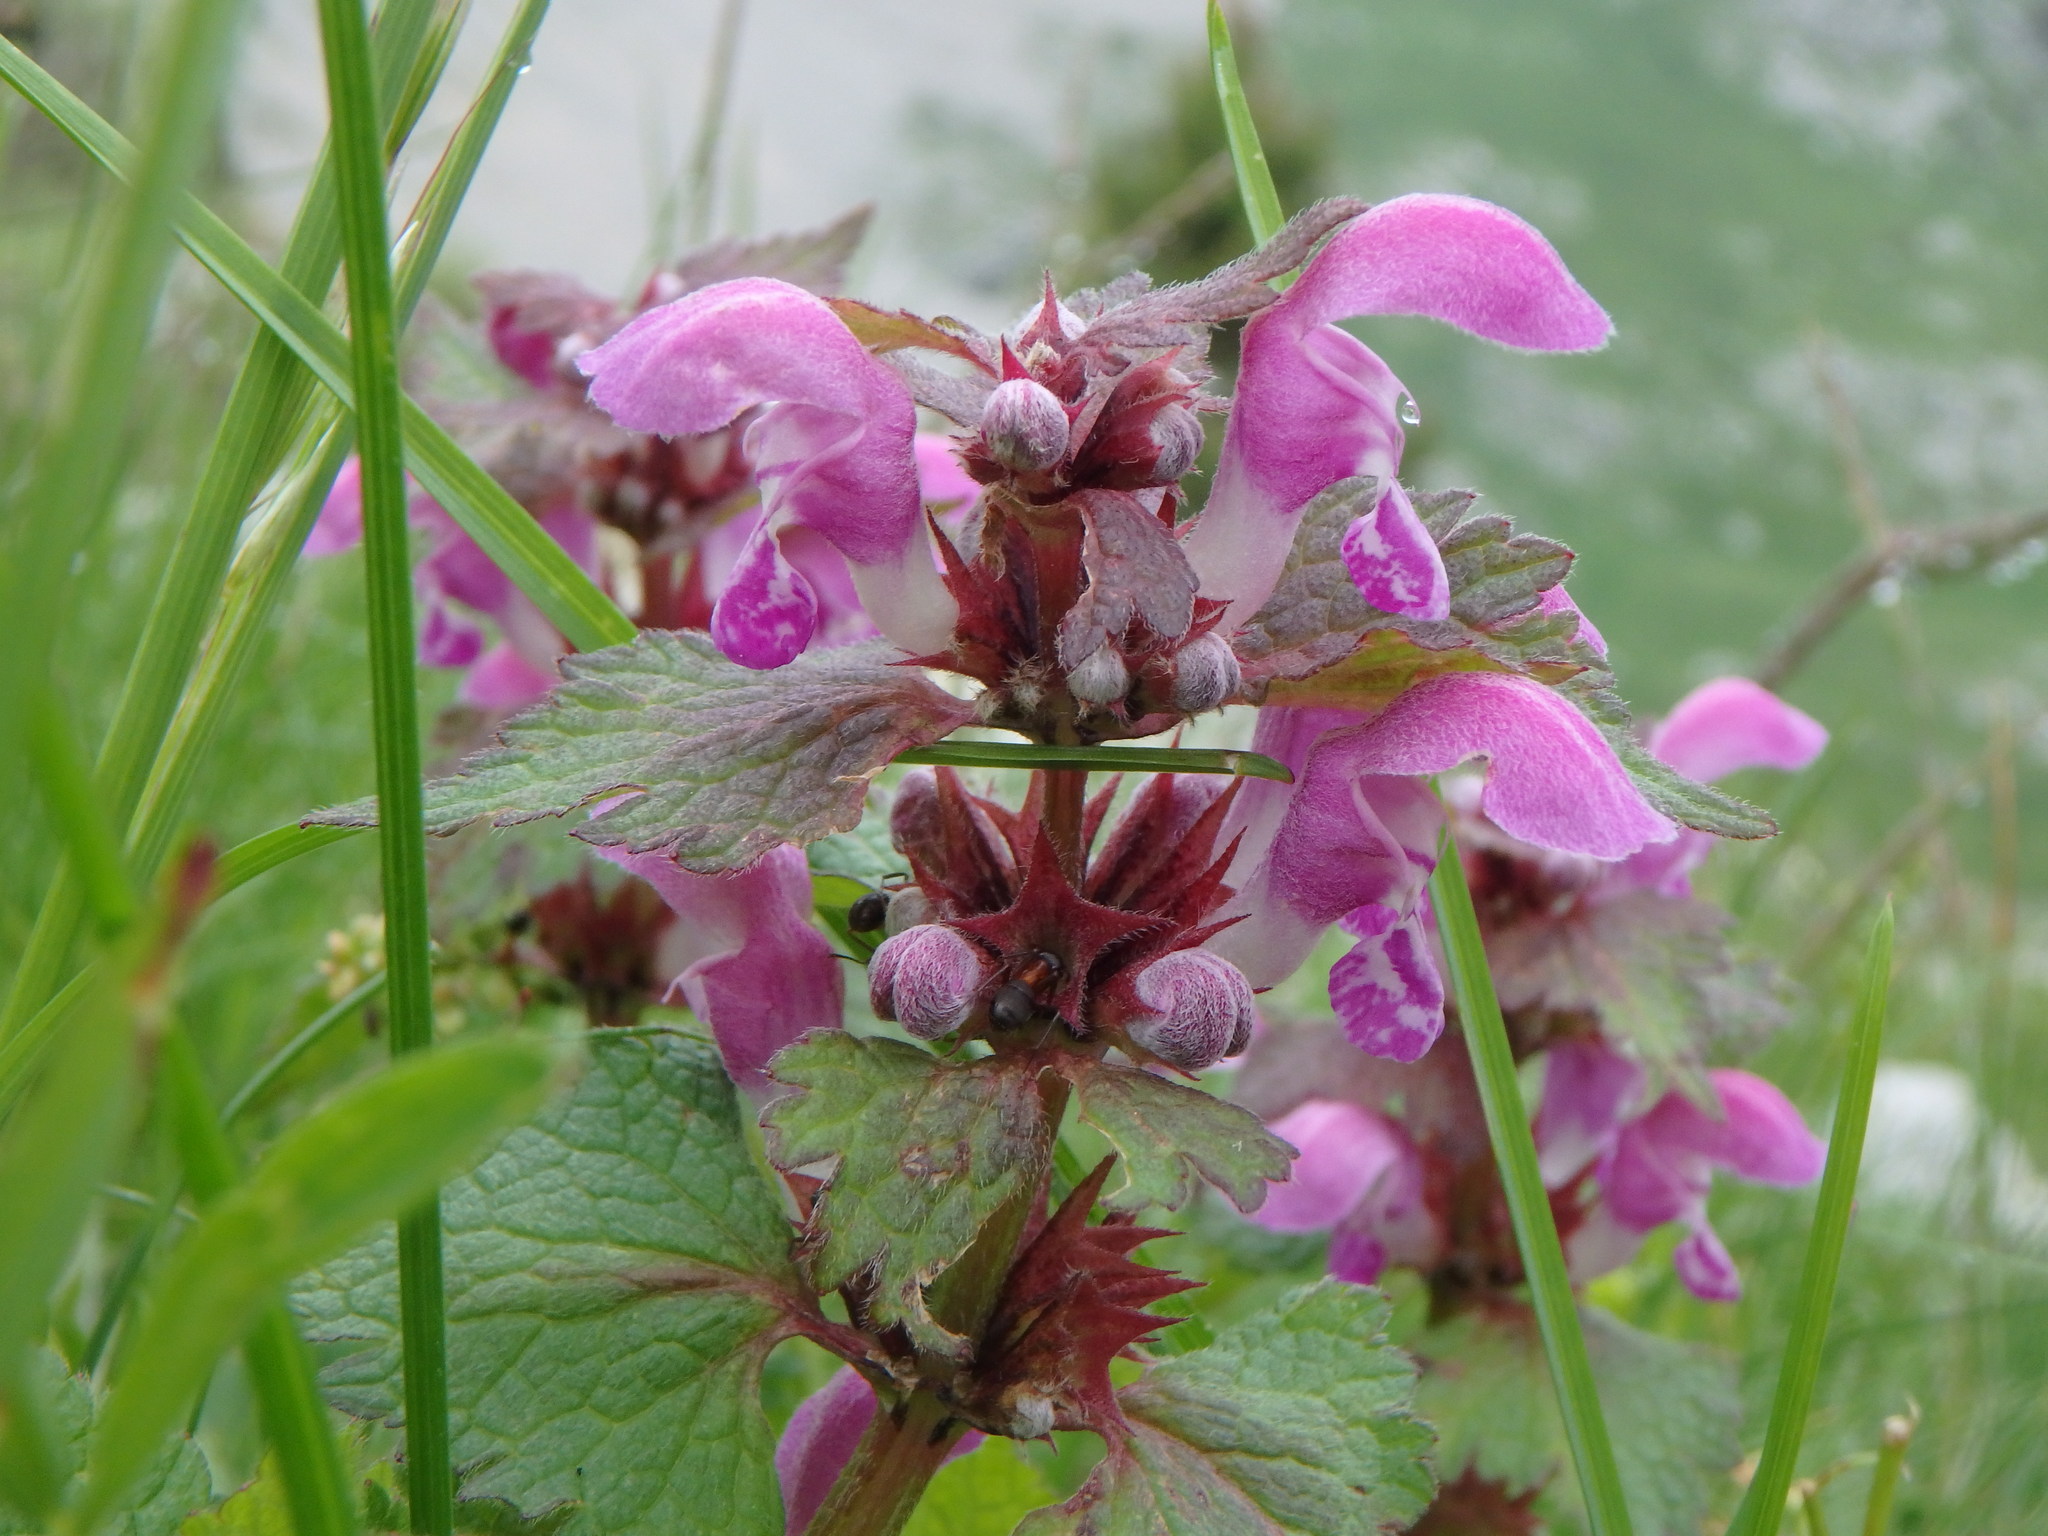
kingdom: Plantae
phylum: Tracheophyta
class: Magnoliopsida
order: Lamiales
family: Lamiaceae
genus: Lamium
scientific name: Lamium maculatum
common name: Spotted dead-nettle
